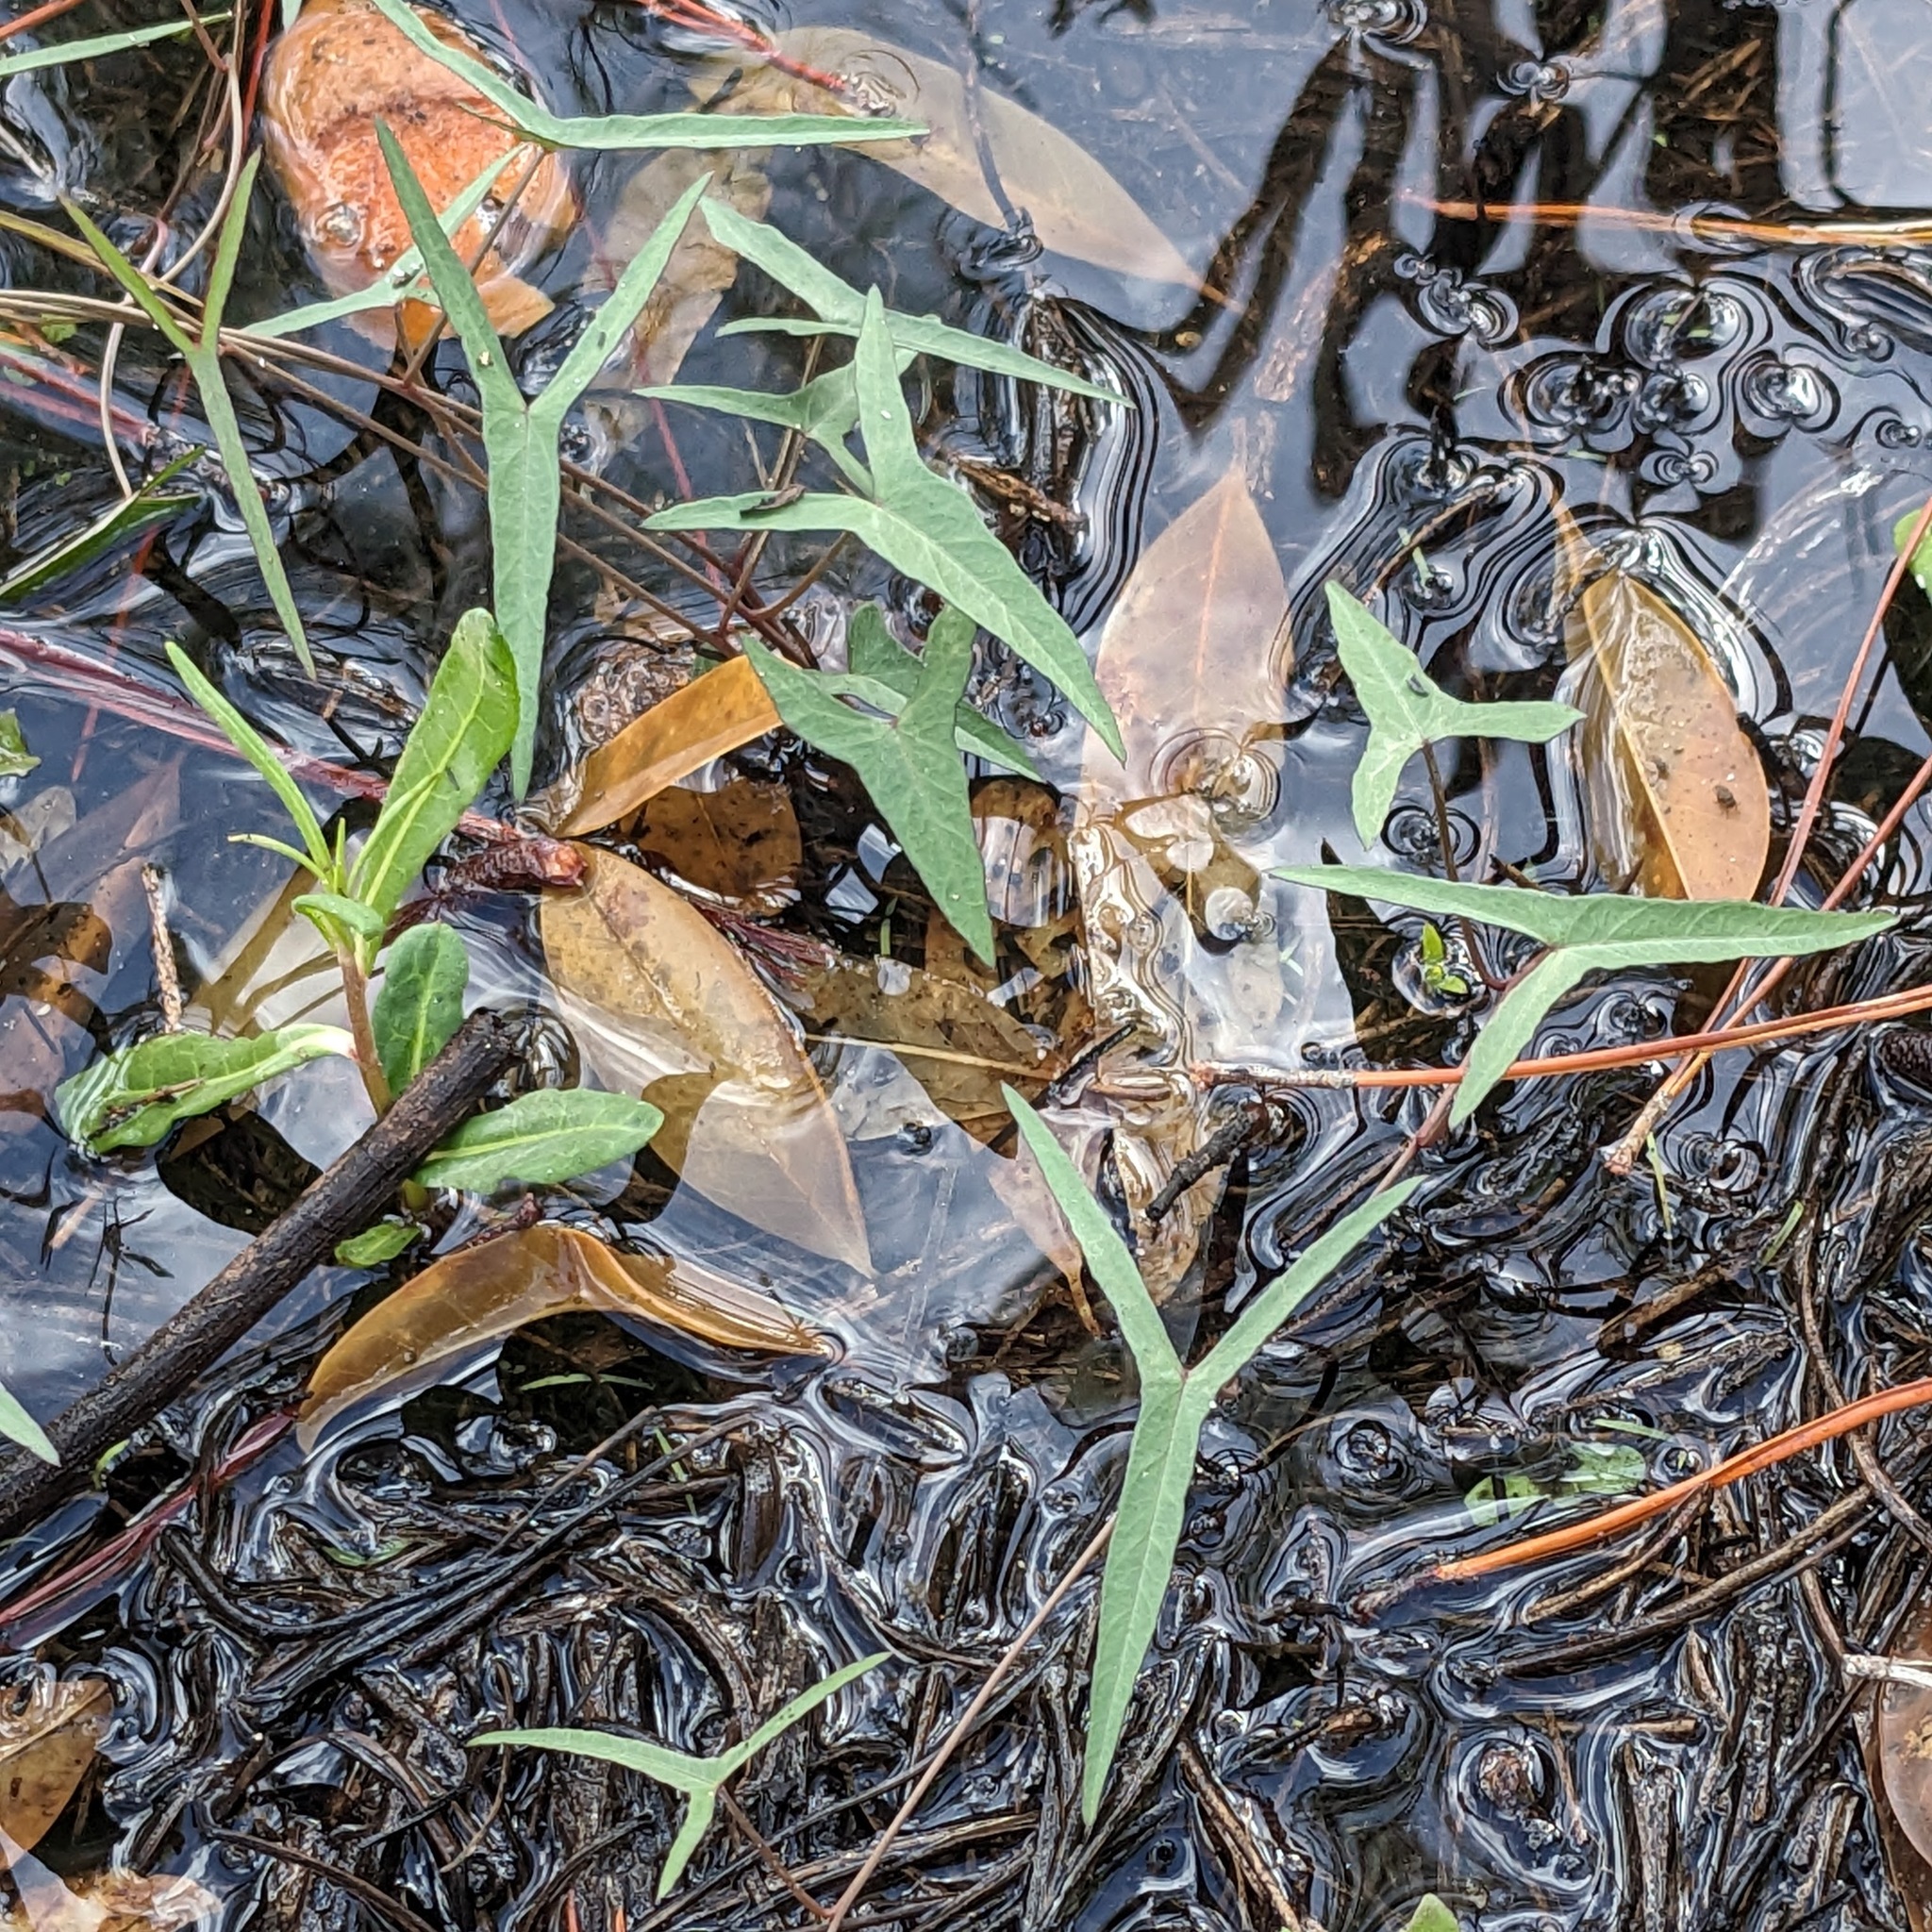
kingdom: Plantae
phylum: Tracheophyta
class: Magnoliopsida
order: Solanales
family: Convolvulaceae
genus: Ipomoea
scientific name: Ipomoea sagittata
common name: Saltmarsh morning glory
